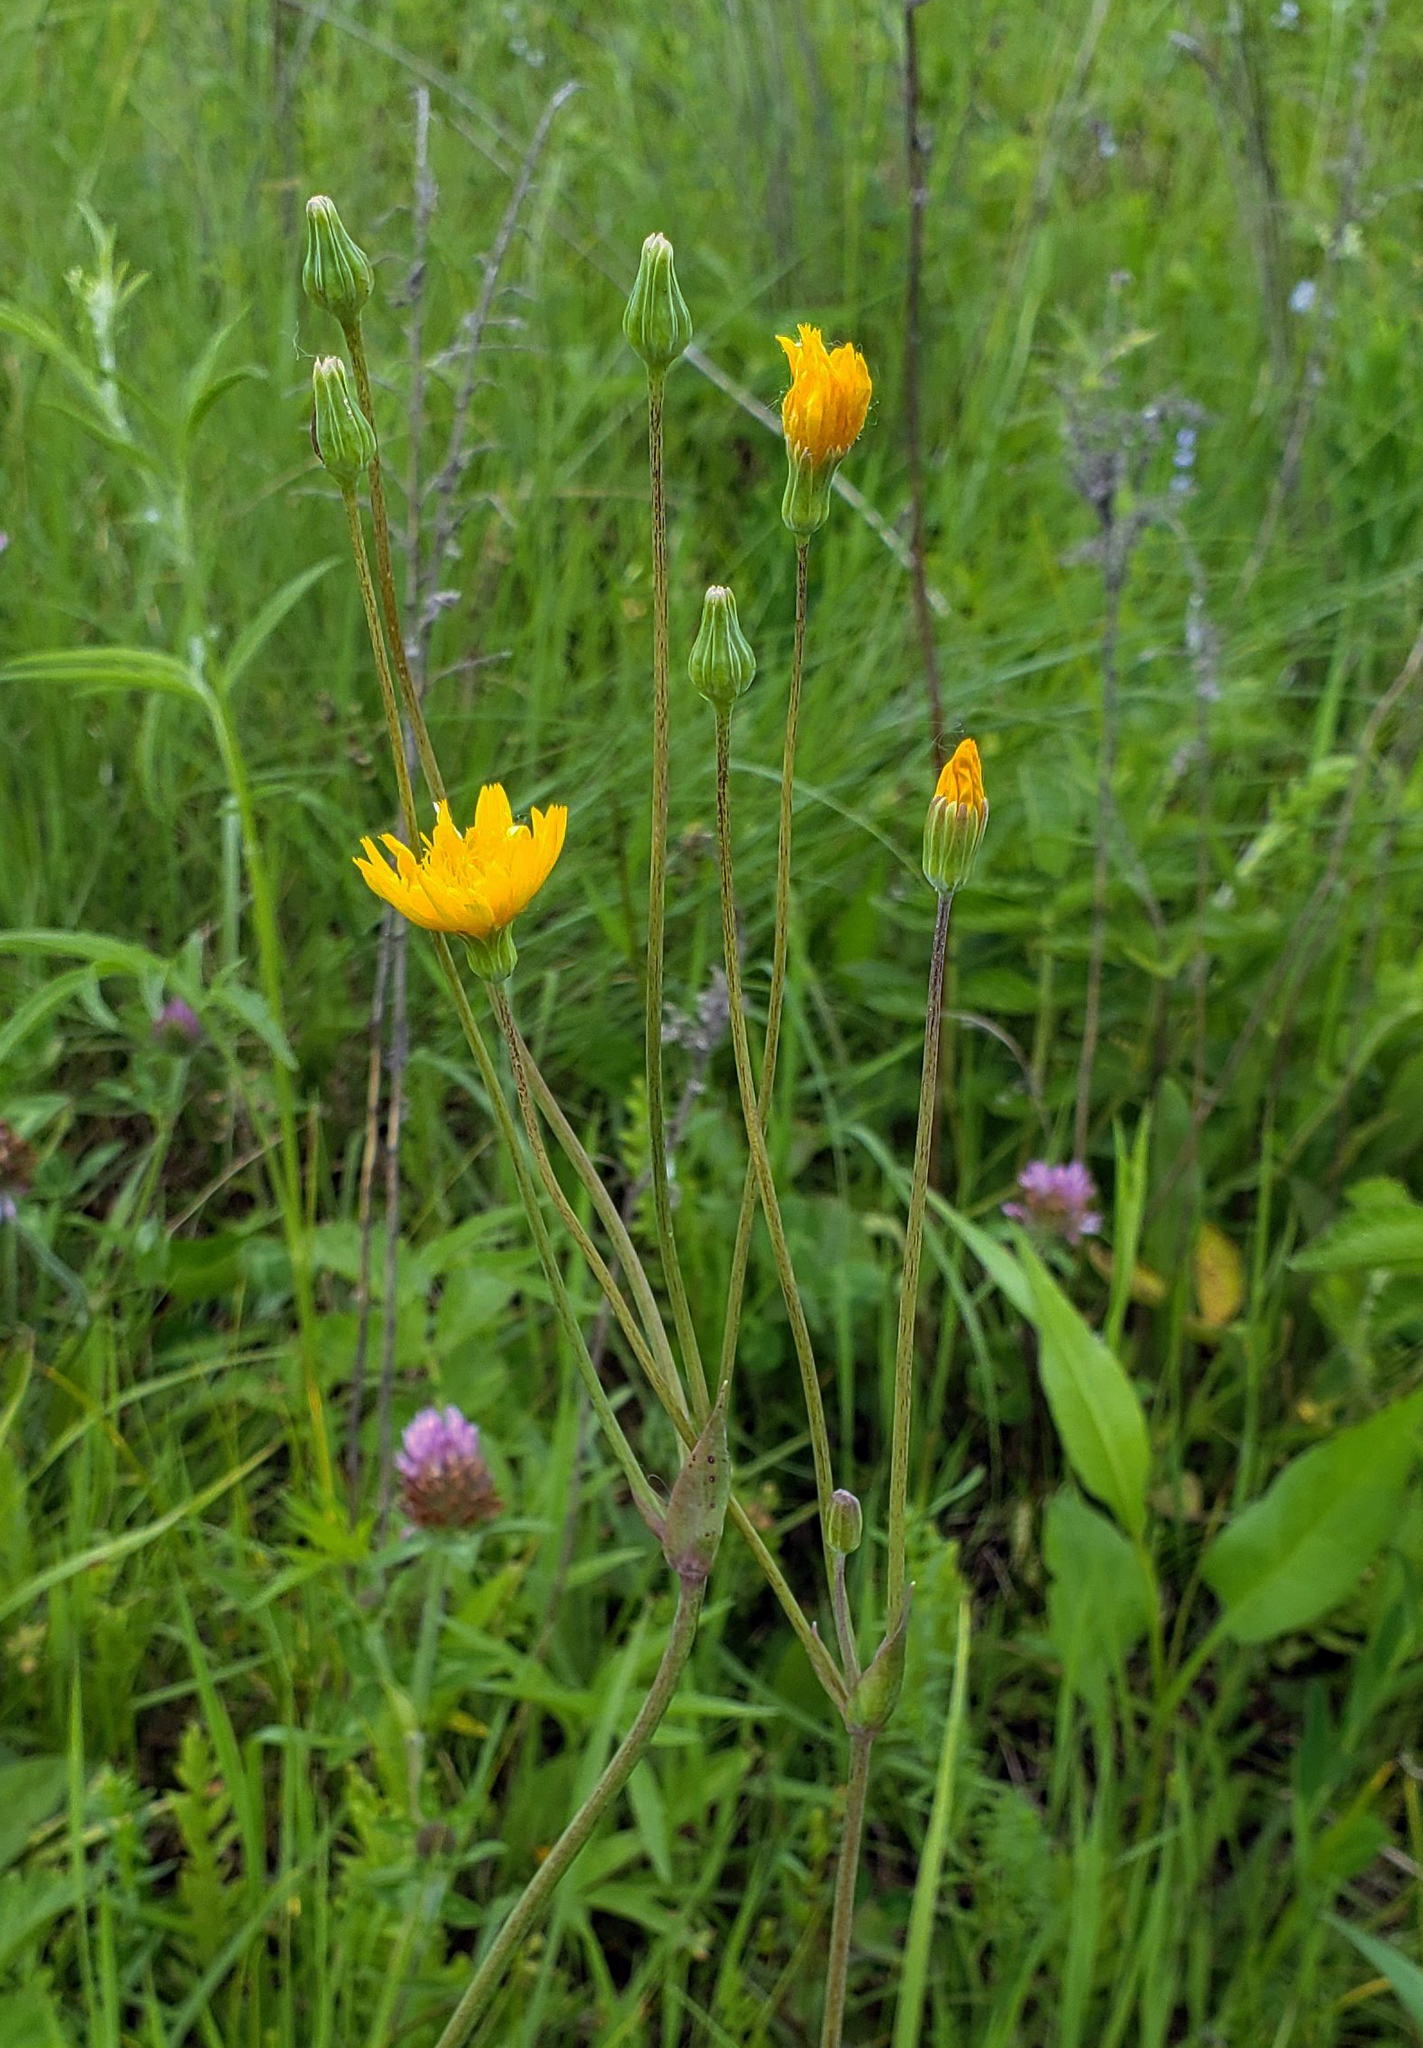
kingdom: Plantae
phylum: Tracheophyta
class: Magnoliopsida
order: Asterales
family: Asteraceae
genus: Krigia
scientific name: Krigia biflora
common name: Orange dwarf-dandelion
